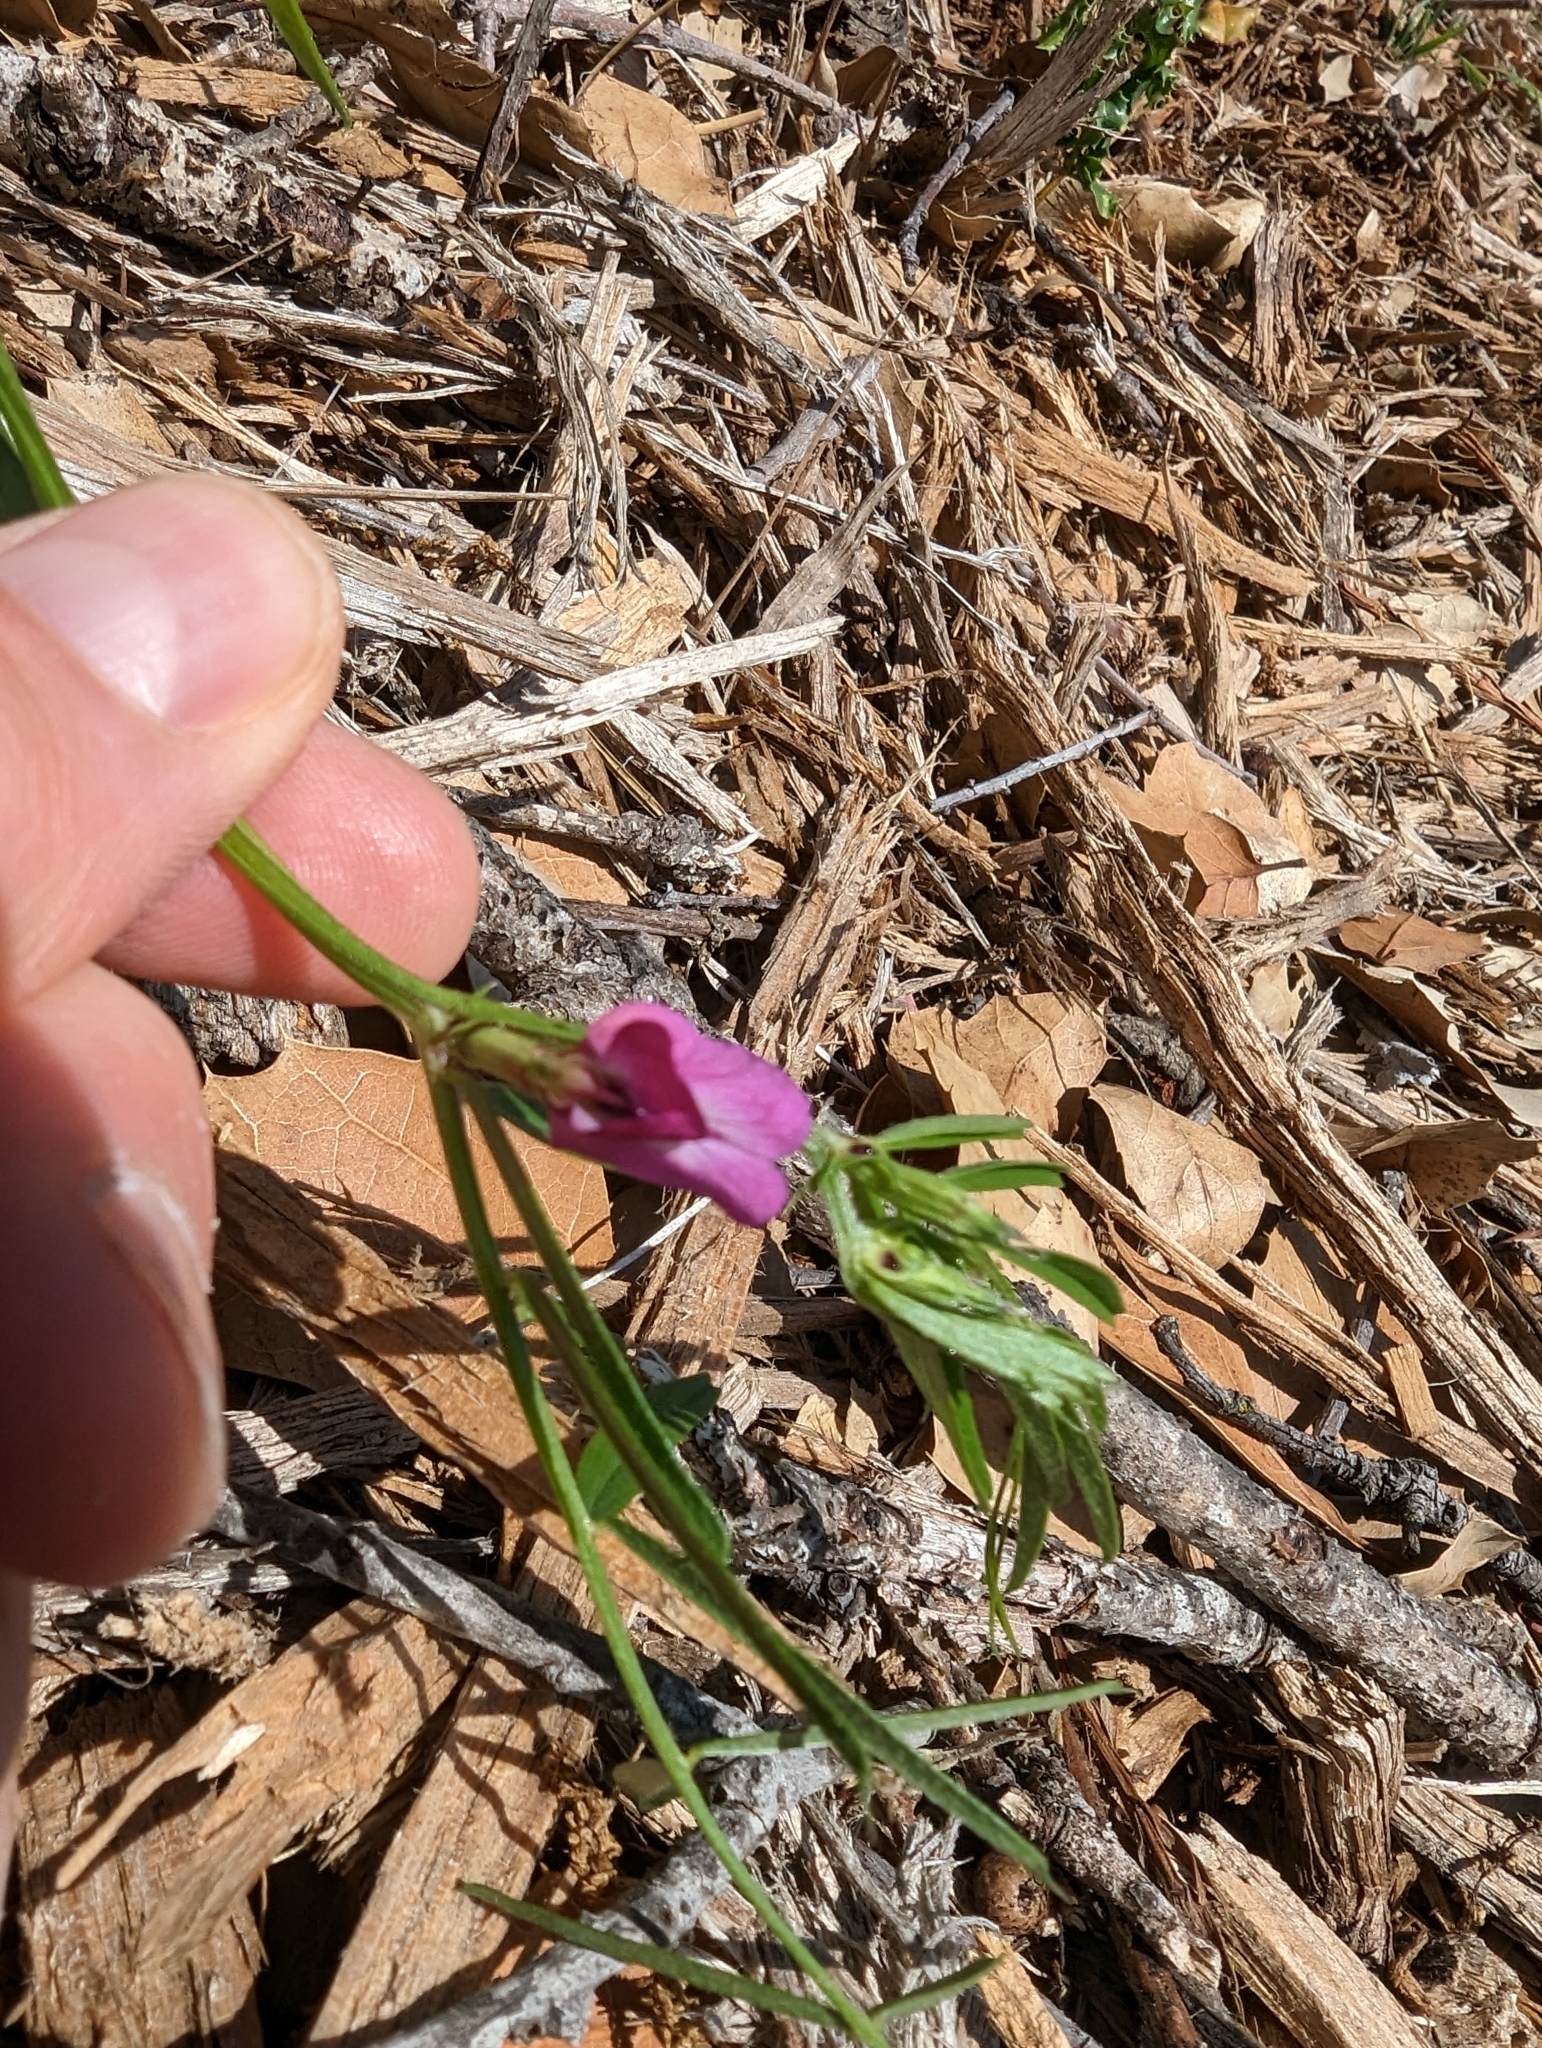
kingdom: Plantae
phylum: Tracheophyta
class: Magnoliopsida
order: Fabales
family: Fabaceae
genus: Vicia
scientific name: Vicia sativa
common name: Garden vetch
